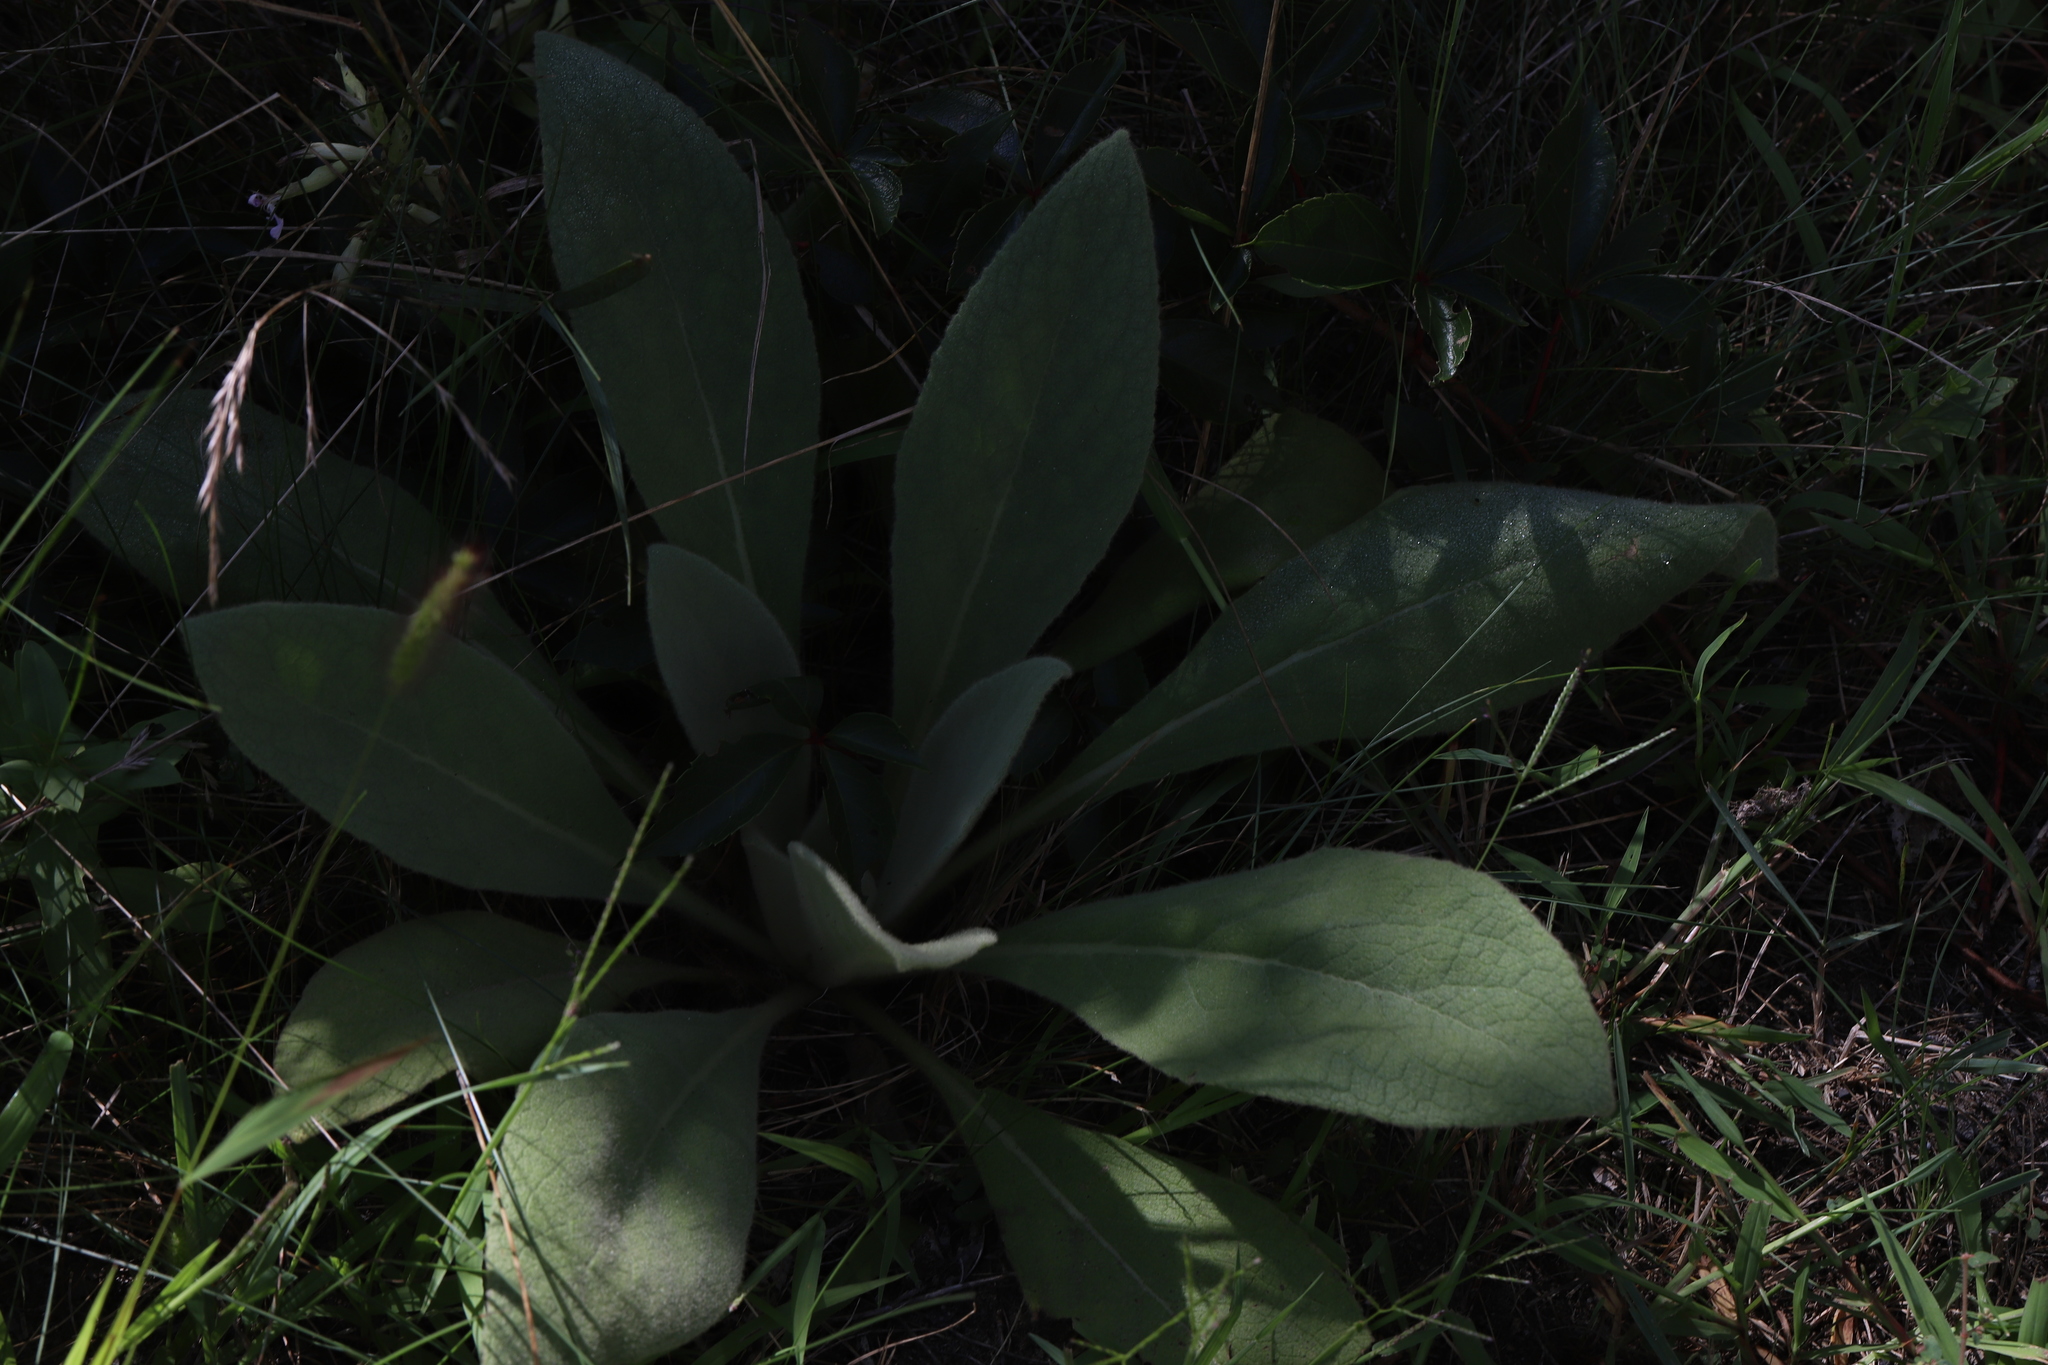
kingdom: Plantae
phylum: Tracheophyta
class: Magnoliopsida
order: Lamiales
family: Scrophulariaceae
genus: Verbascum
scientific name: Verbascum thapsus
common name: Common mullein
